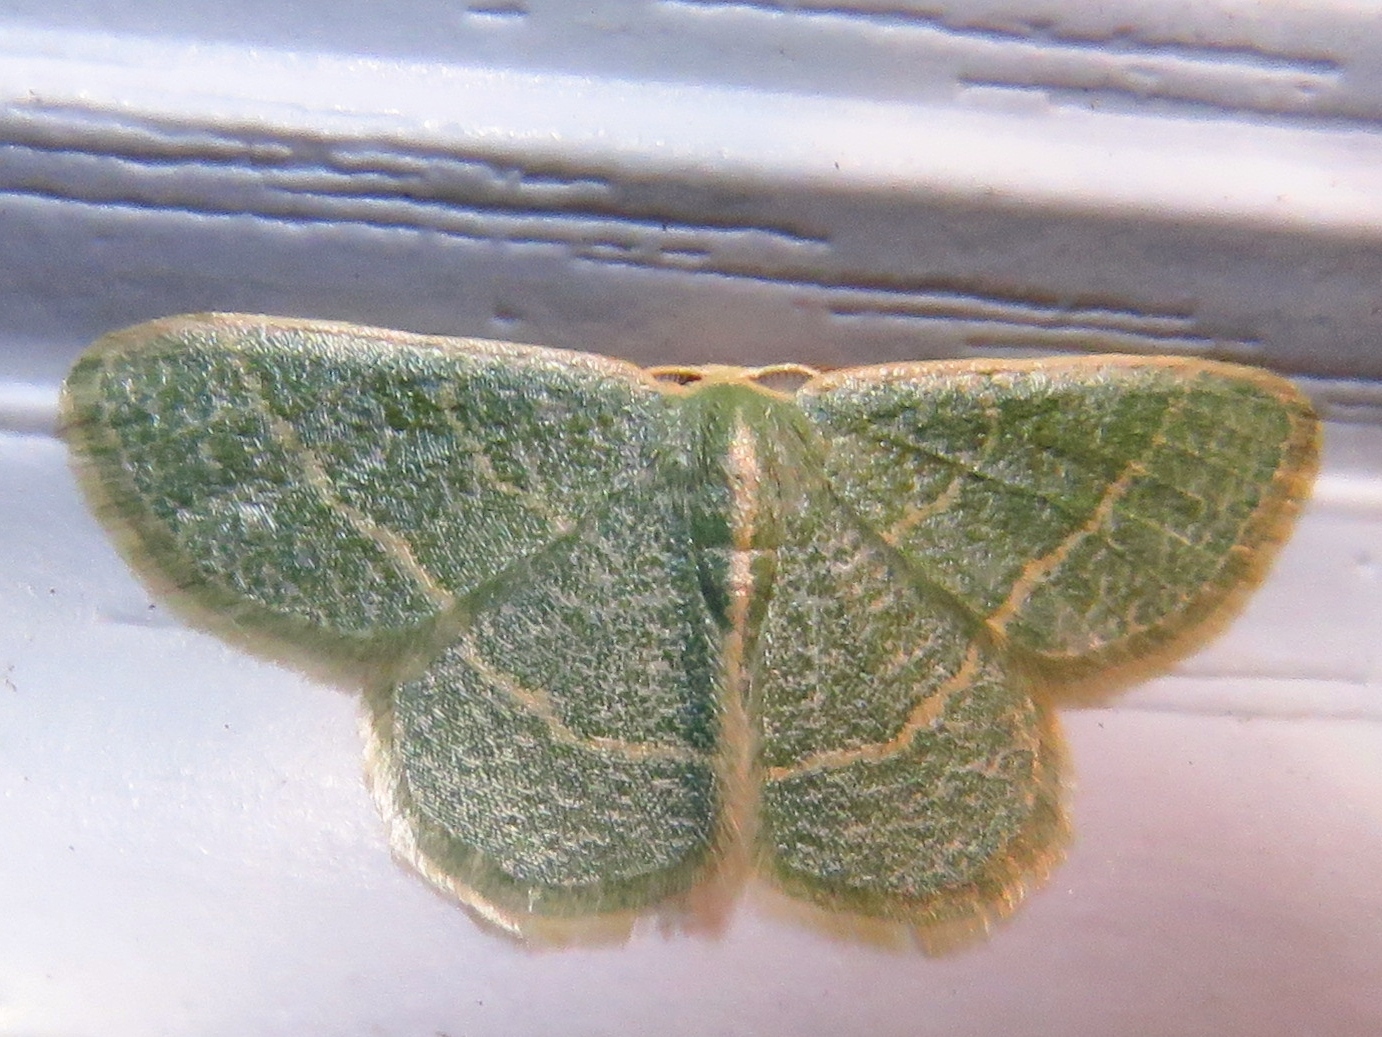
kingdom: Animalia
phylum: Arthropoda
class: Insecta
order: Lepidoptera
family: Geometridae
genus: Chlorochlamys
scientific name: Chlorochlamys chloroleucaria
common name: Blackberry looper
